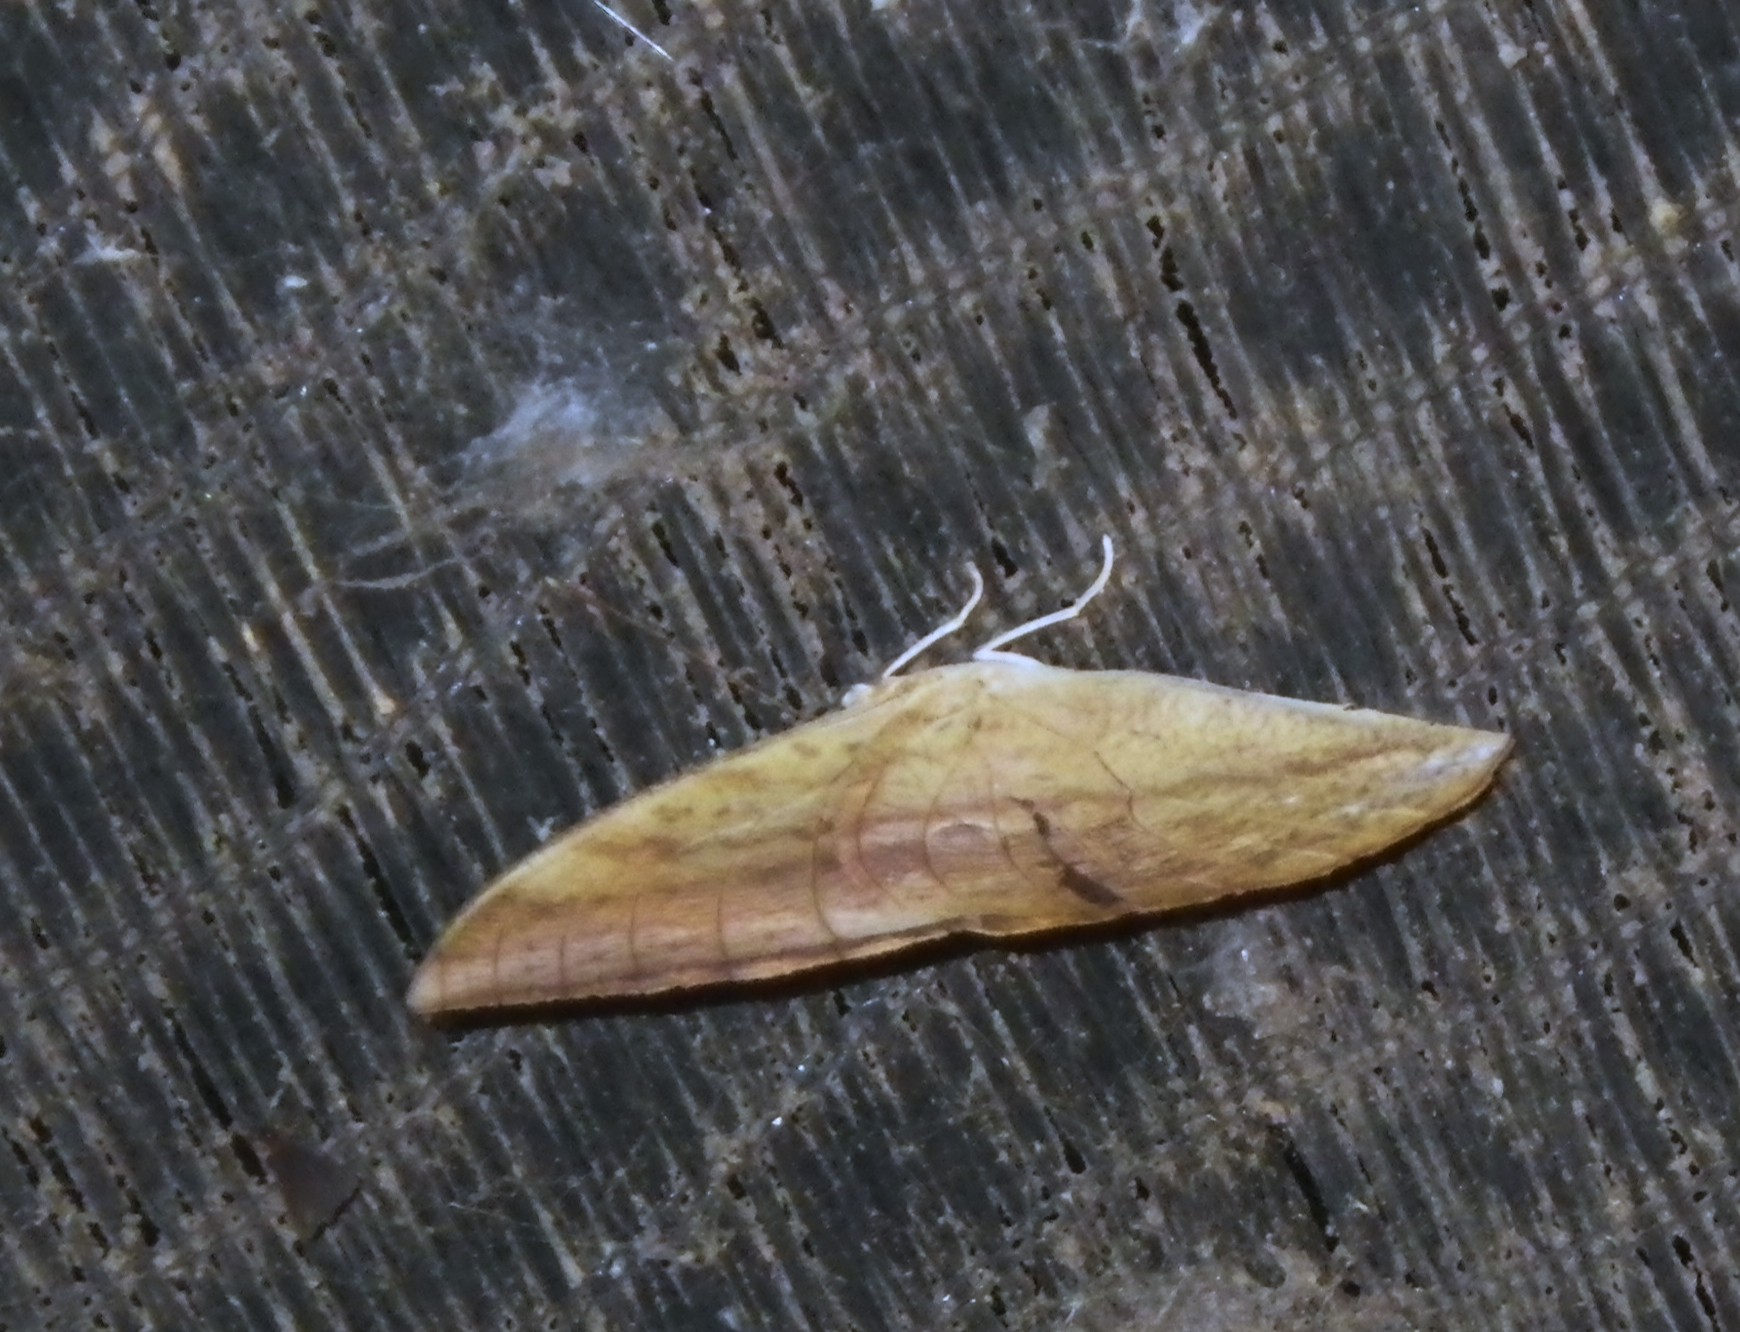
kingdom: Animalia
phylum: Arthropoda
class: Insecta
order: Lepidoptera
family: Nymphalidae
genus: Discophora
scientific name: Discophora timora
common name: Great duffer
